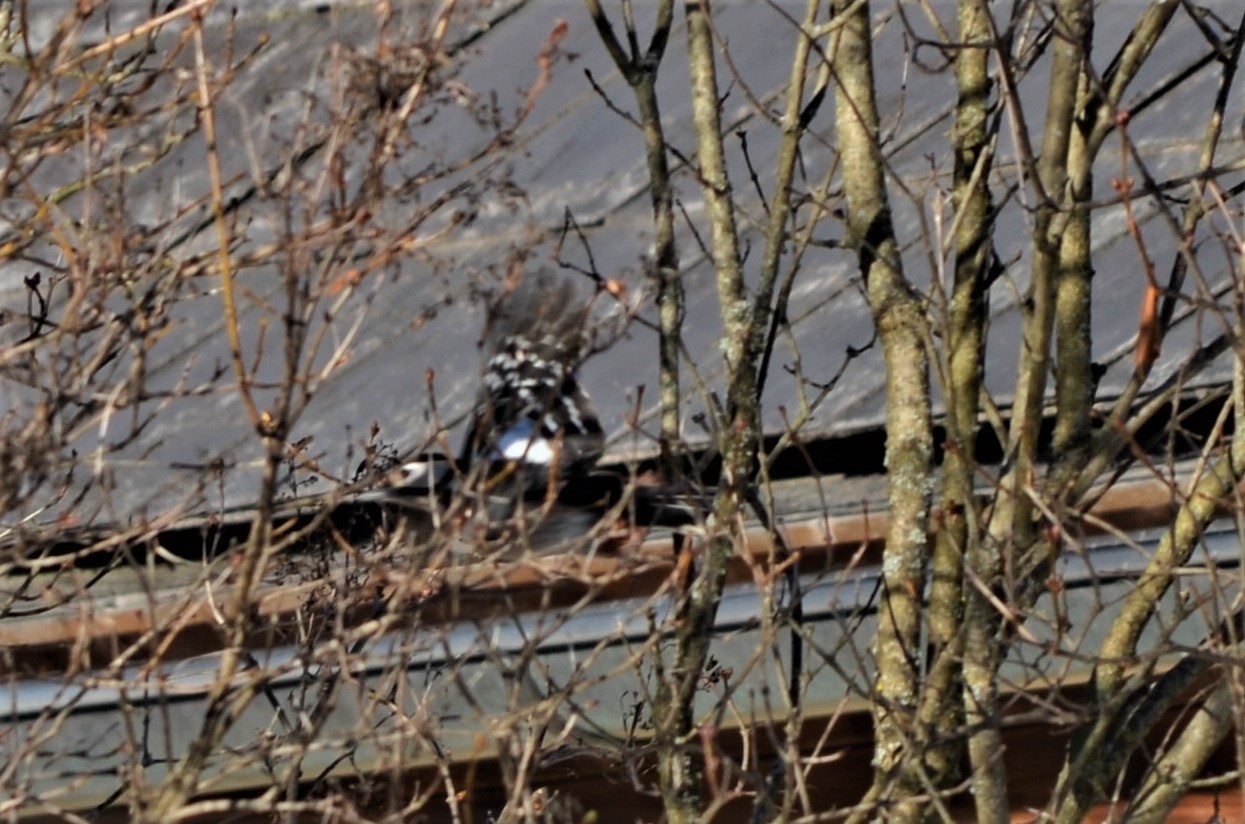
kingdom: Animalia
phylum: Chordata
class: Aves
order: Piciformes
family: Picidae
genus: Dendrocopos
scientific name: Dendrocopos major
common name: Great spotted woodpecker
